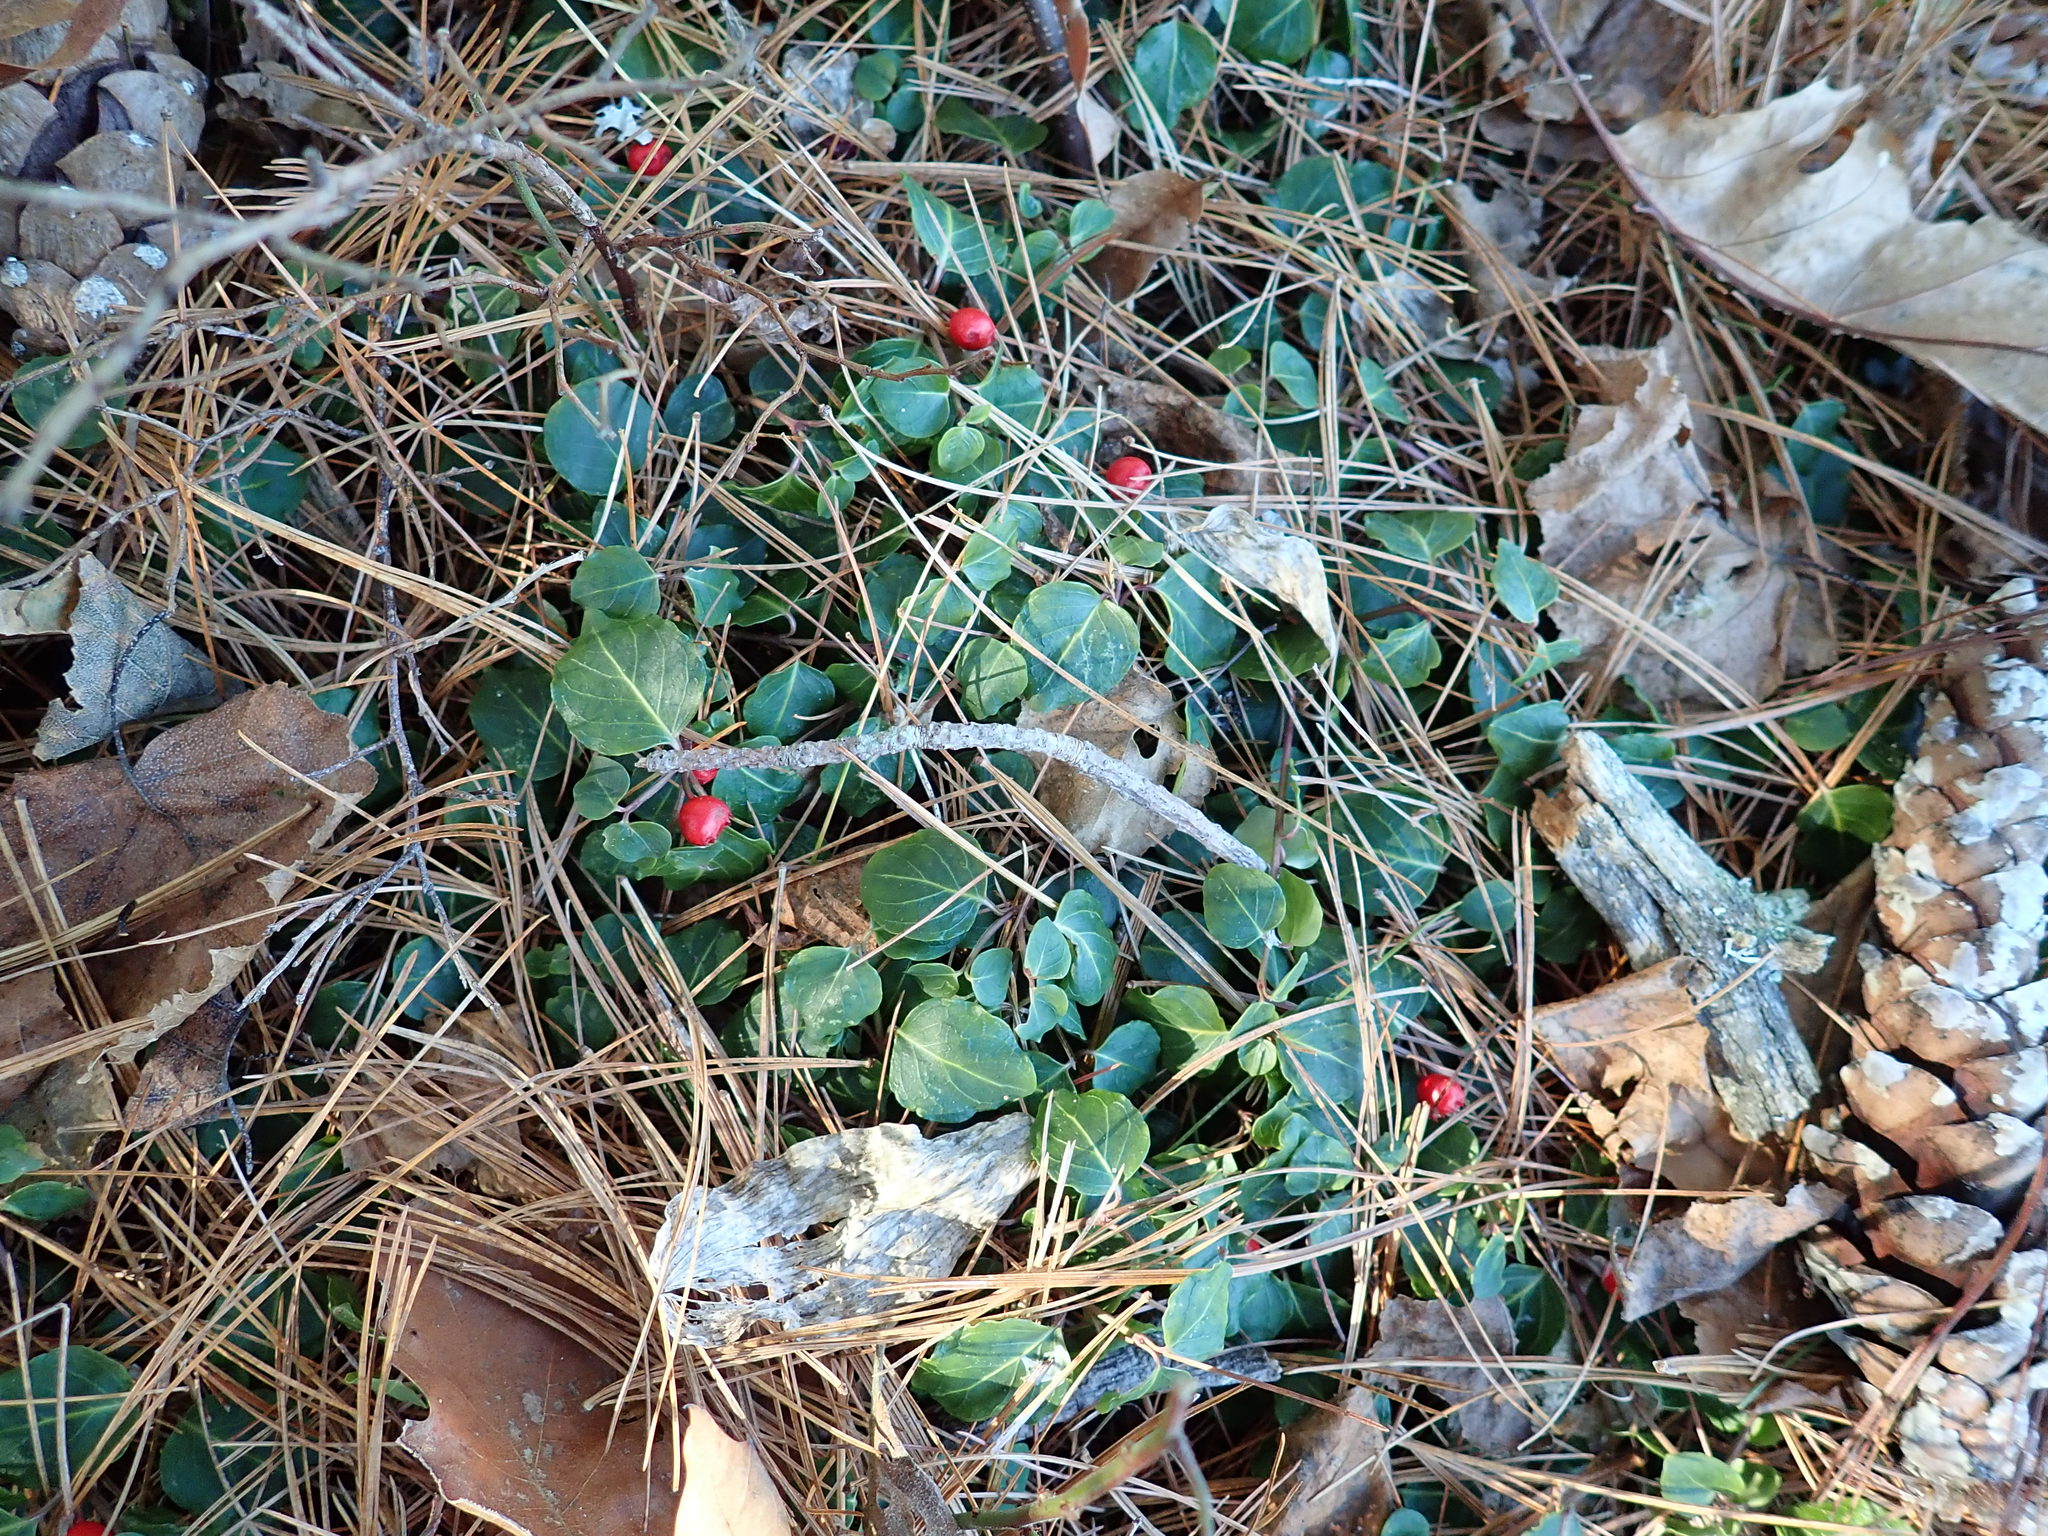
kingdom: Plantae
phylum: Tracheophyta
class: Magnoliopsida
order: Gentianales
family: Rubiaceae
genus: Mitchella
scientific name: Mitchella repens
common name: Partridge-berry
